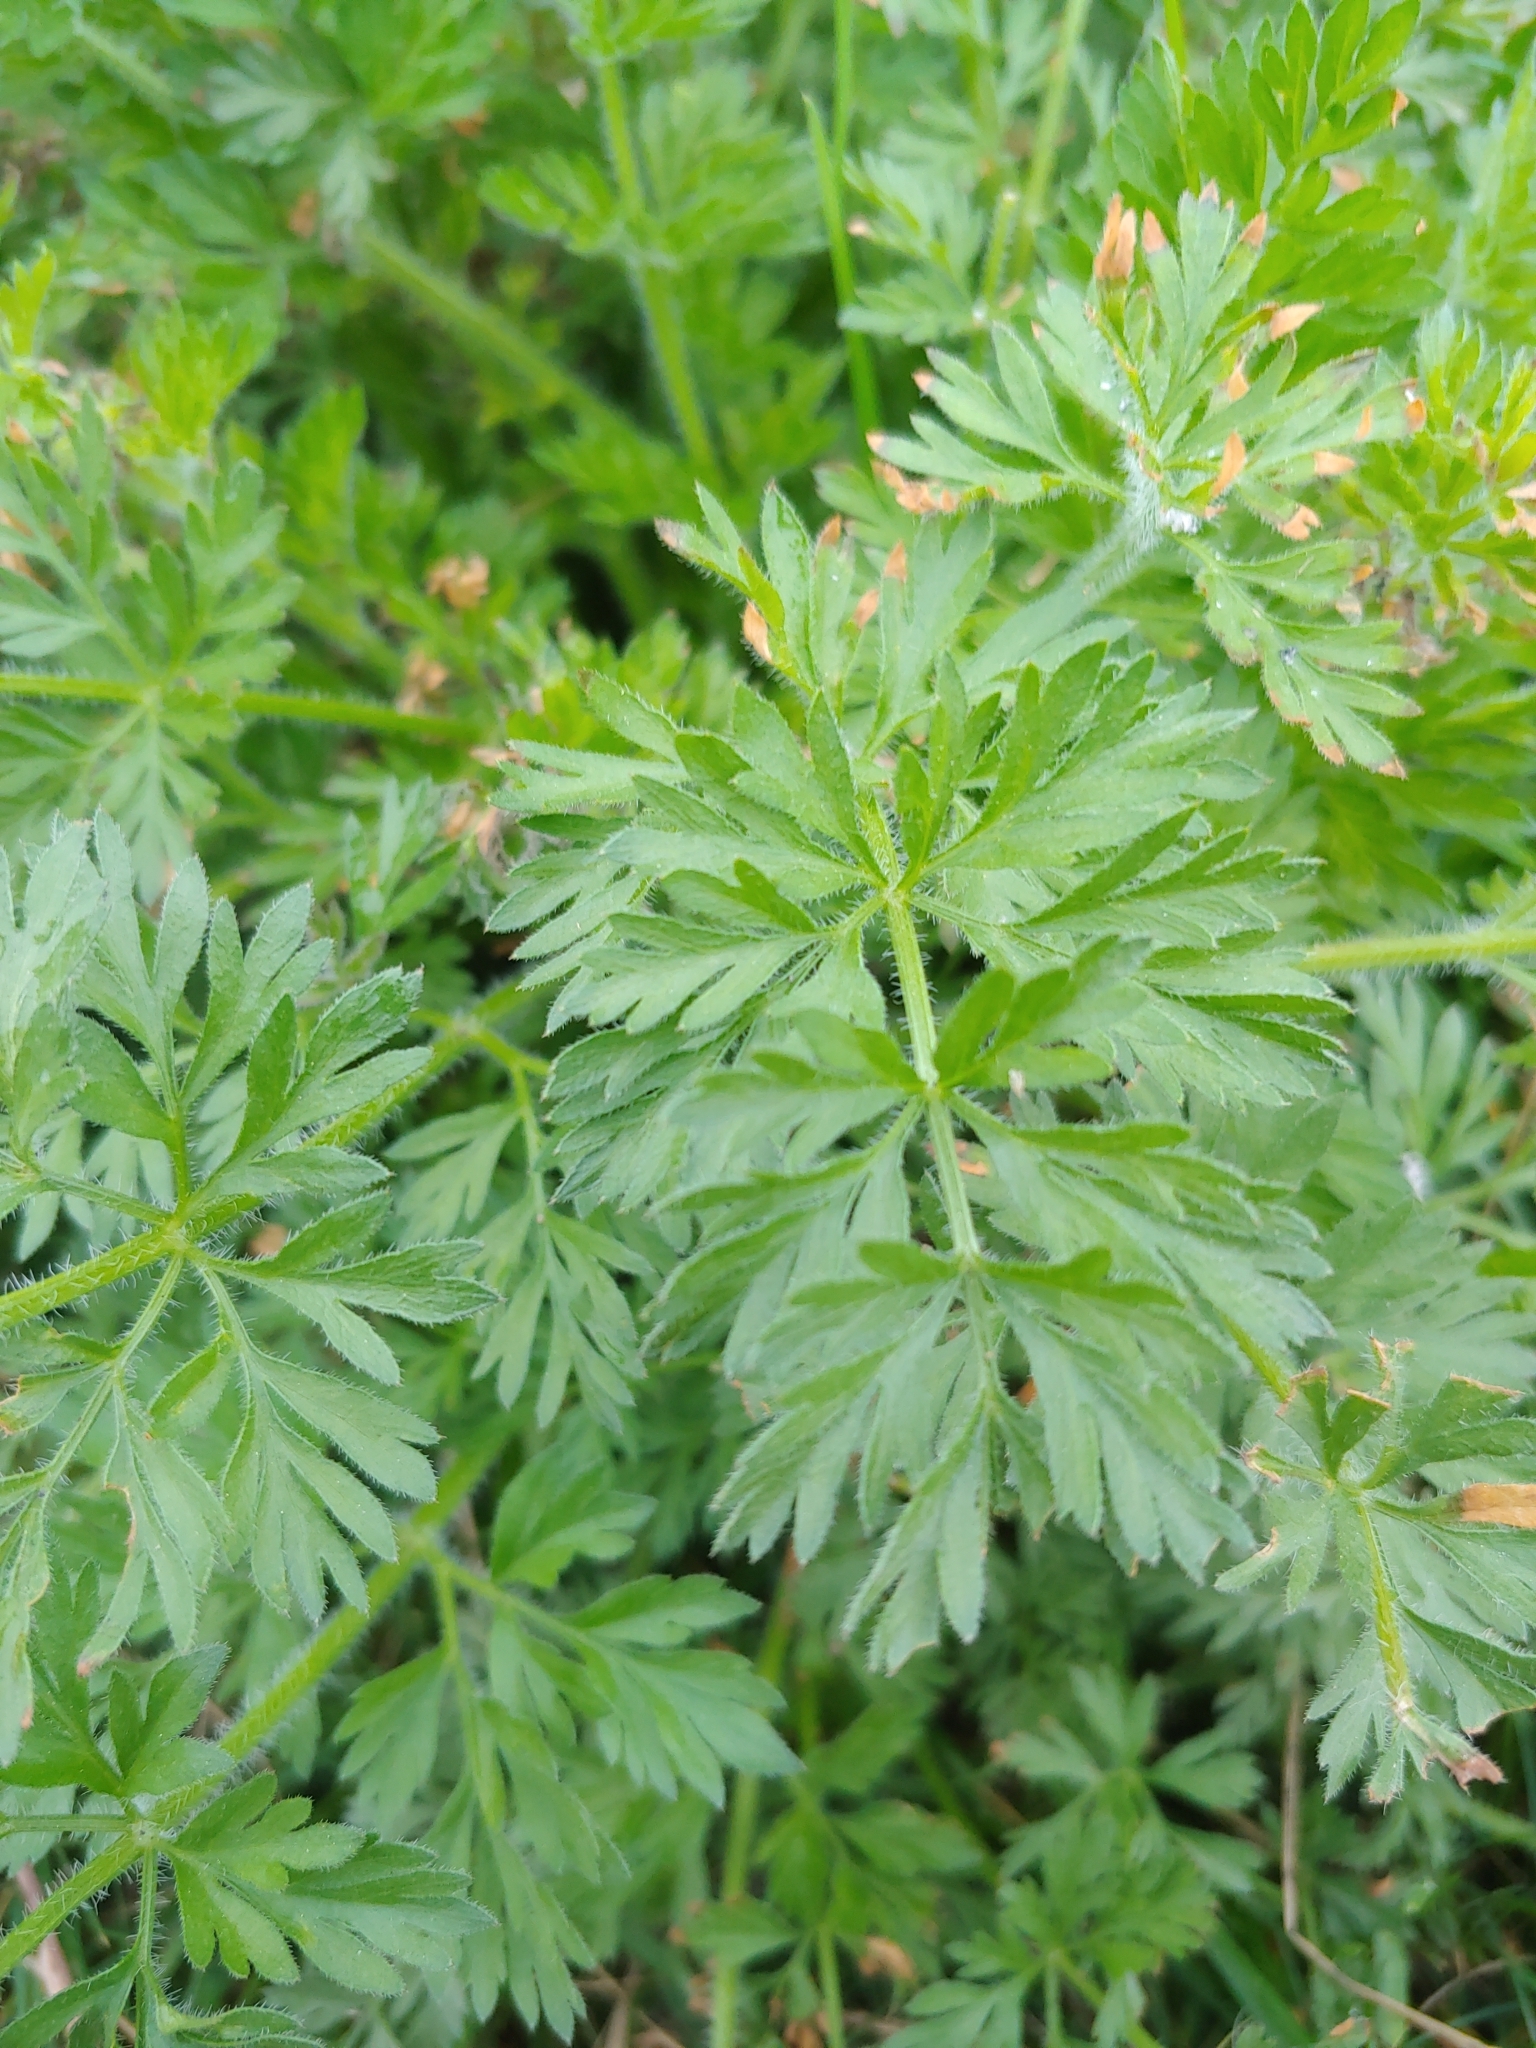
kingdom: Plantae
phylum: Tracheophyta
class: Magnoliopsida
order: Apiales
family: Apiaceae
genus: Daucus
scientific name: Daucus carota
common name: Wild carrot
